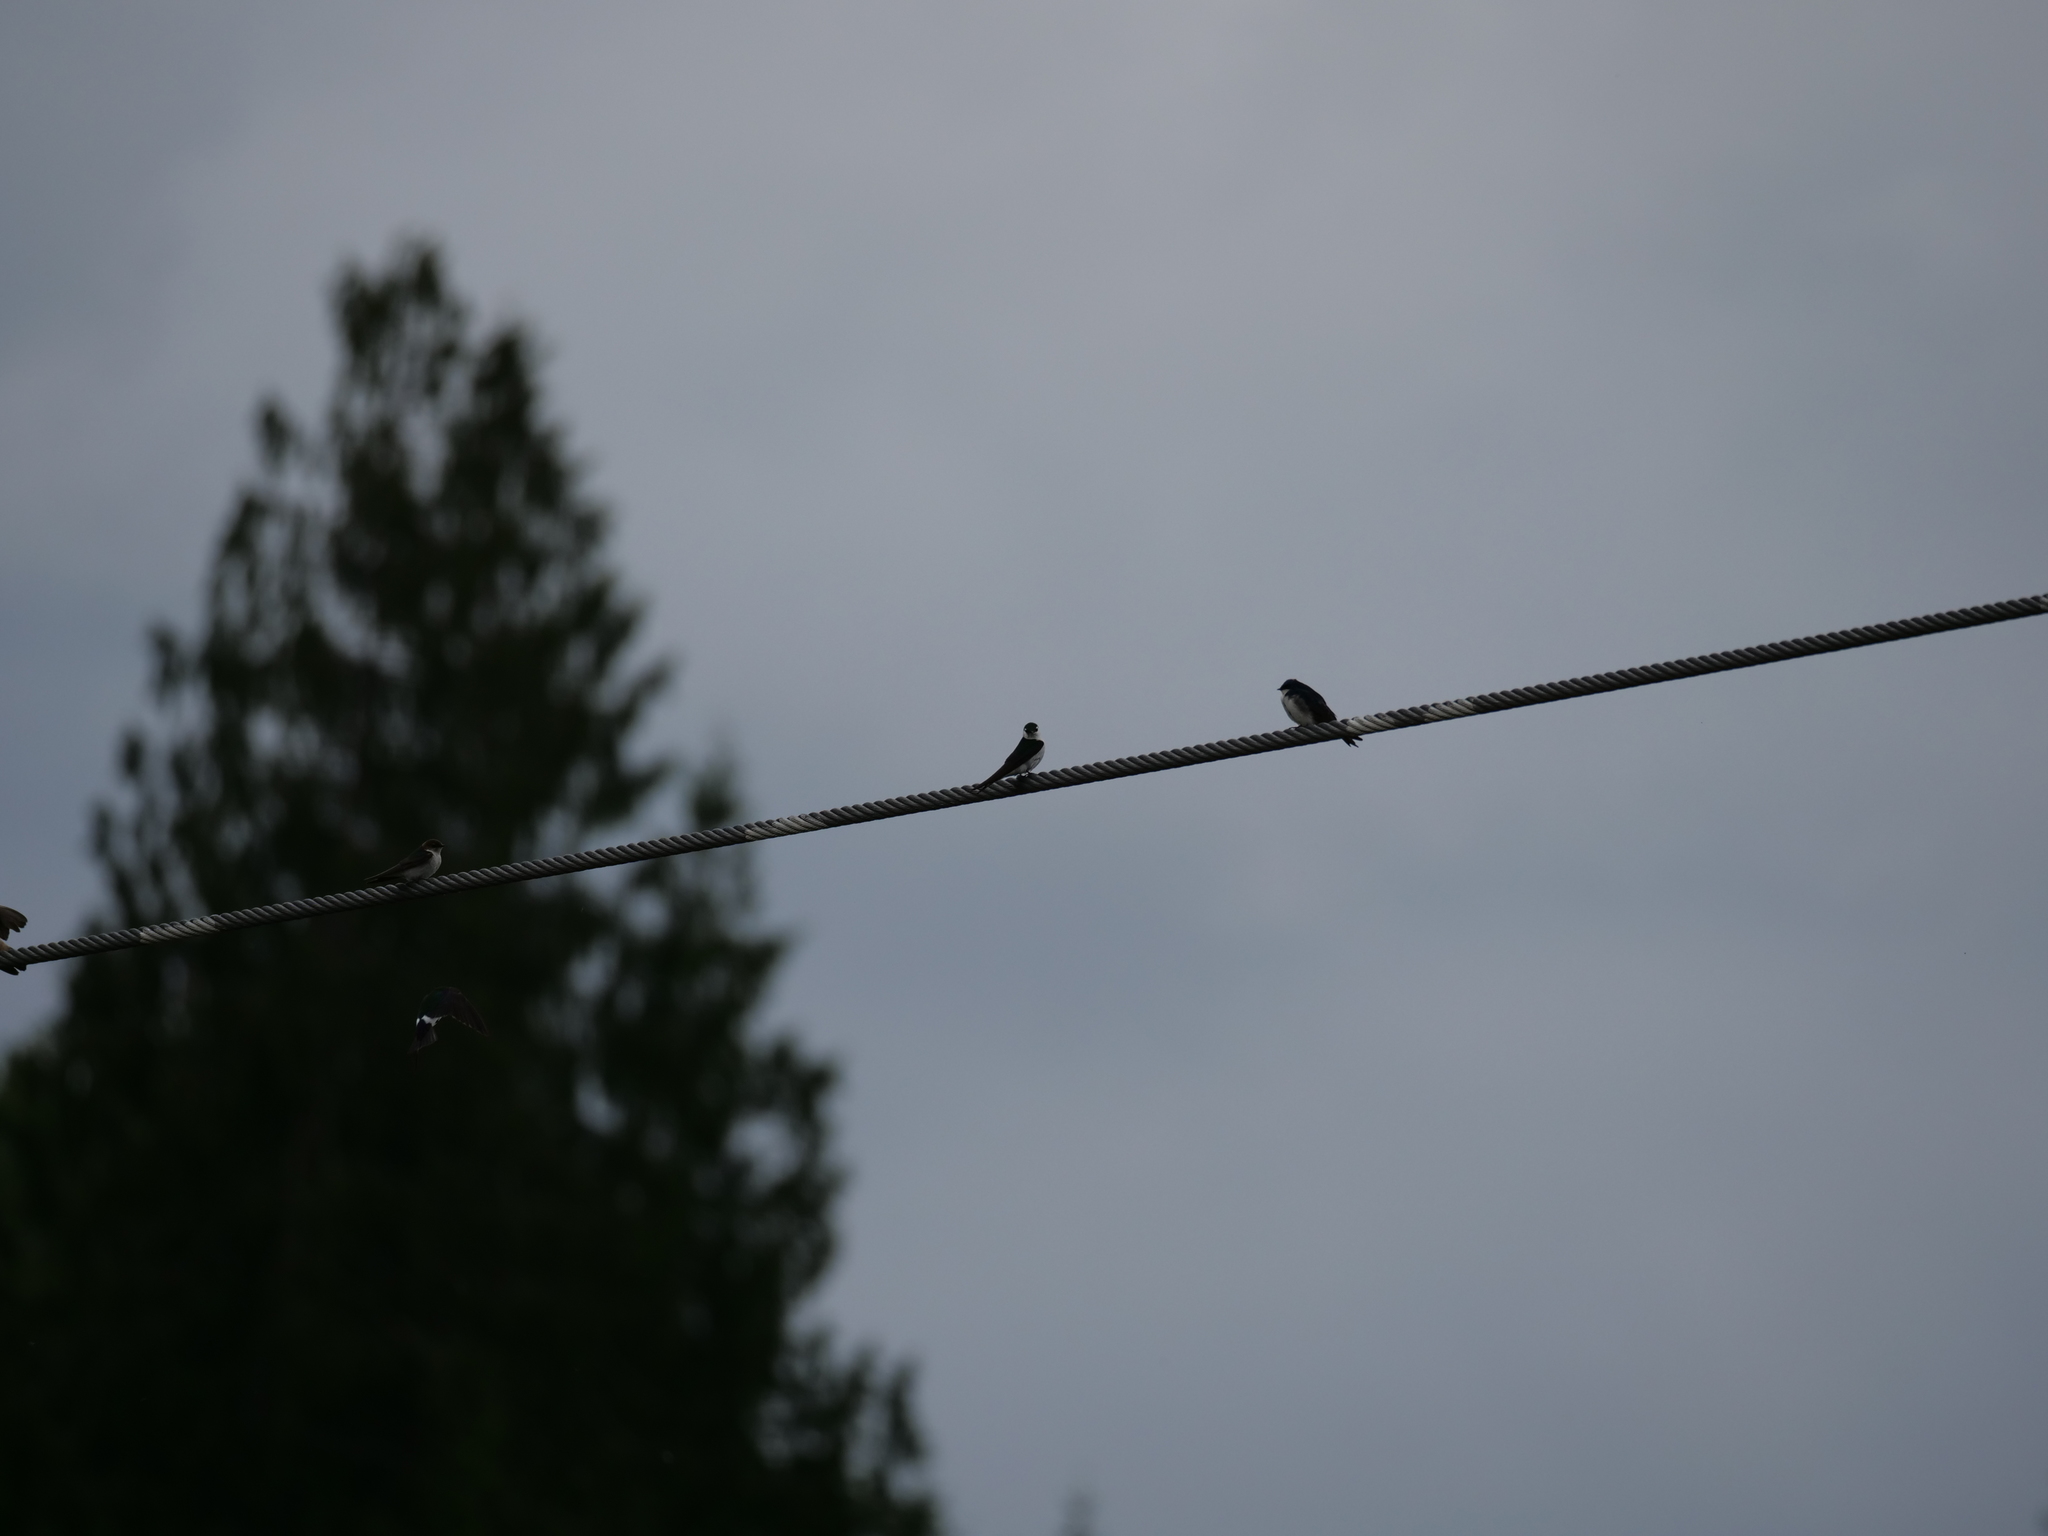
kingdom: Animalia
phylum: Chordata
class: Aves
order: Passeriformes
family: Hirundinidae
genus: Tachycineta
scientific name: Tachycineta thalassina
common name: Violet-green swallow
